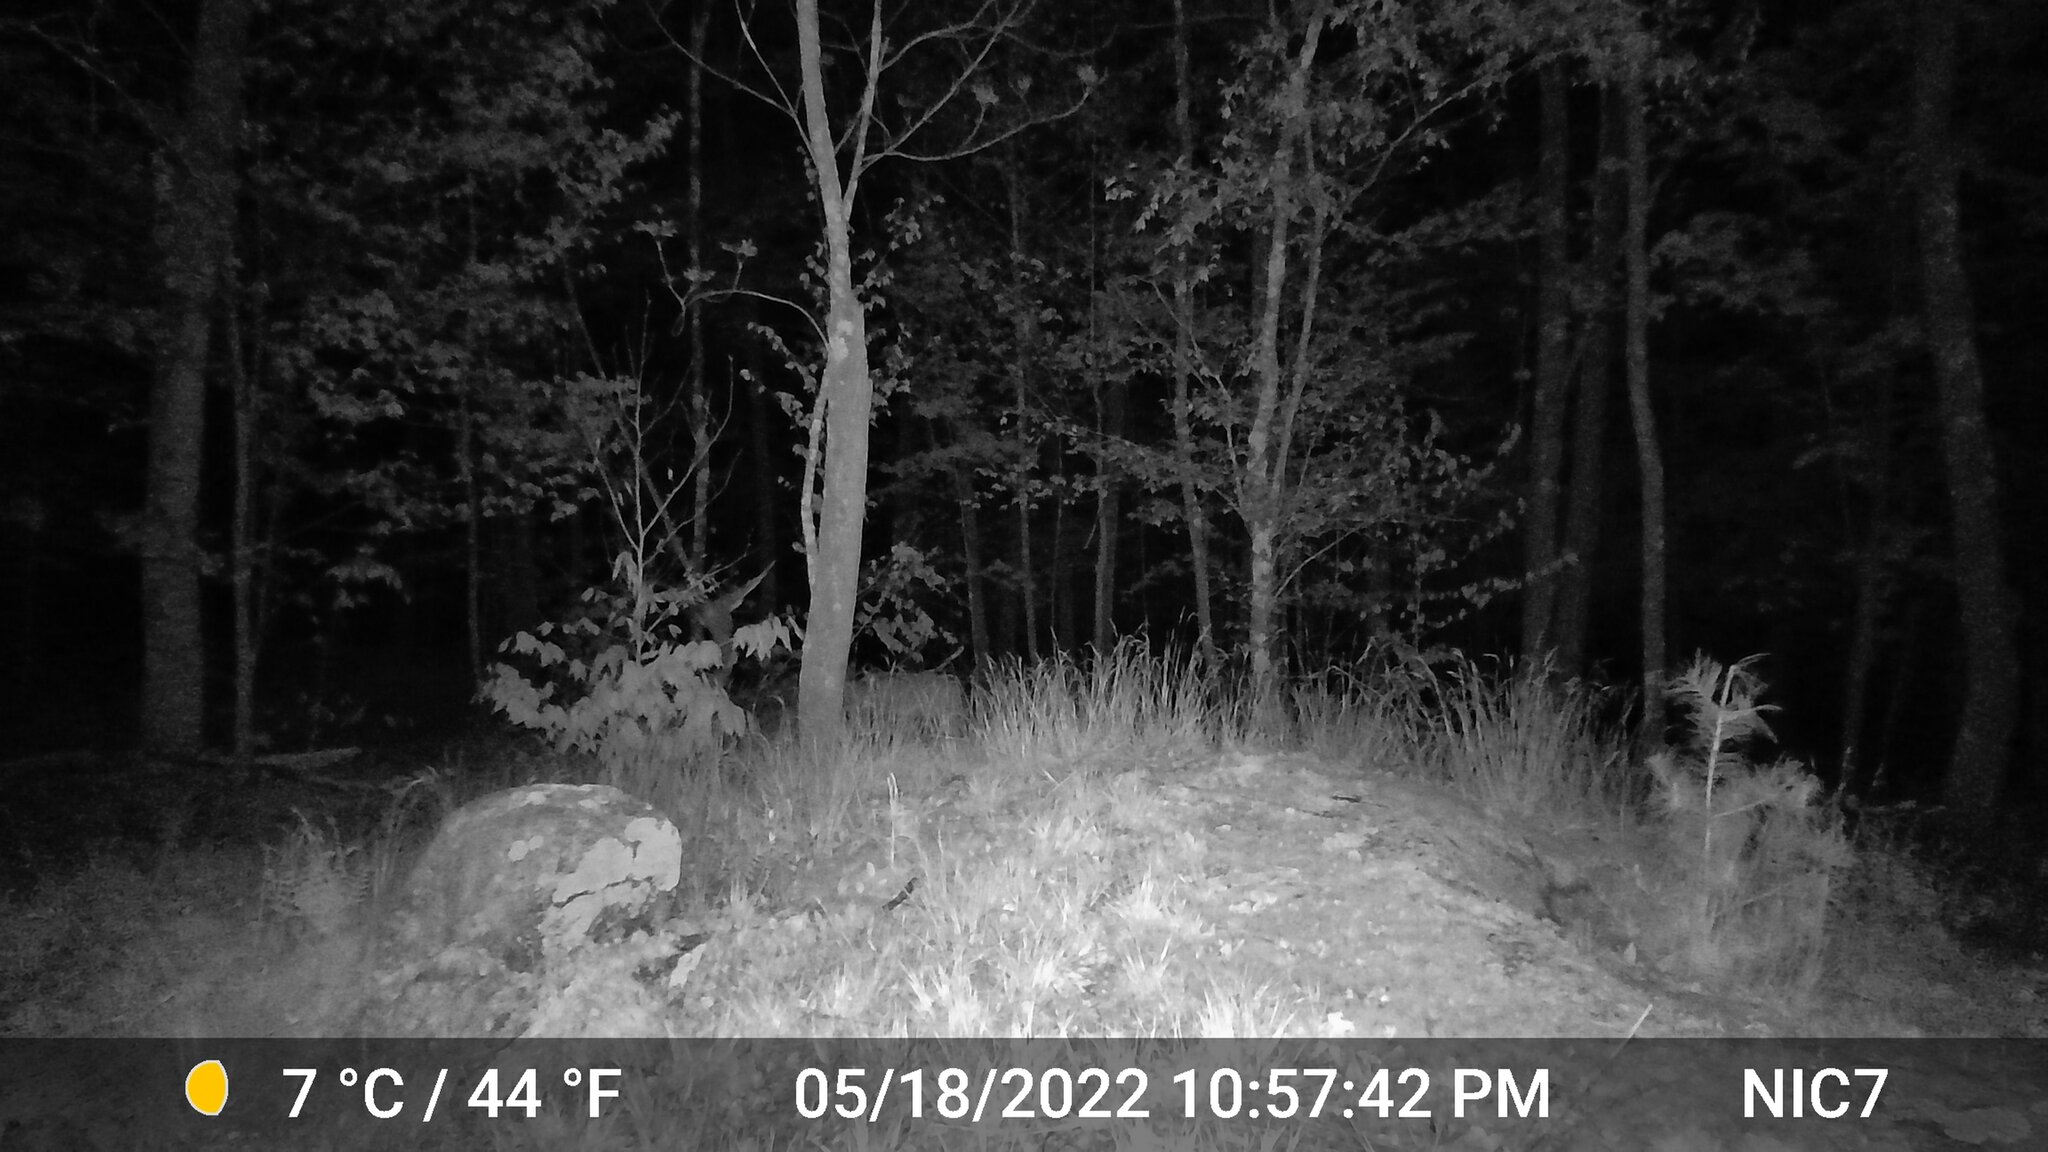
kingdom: Animalia
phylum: Chordata
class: Mammalia
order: Artiodactyla
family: Cervidae
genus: Odocoileus
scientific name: Odocoileus virginianus
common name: White-tailed deer
